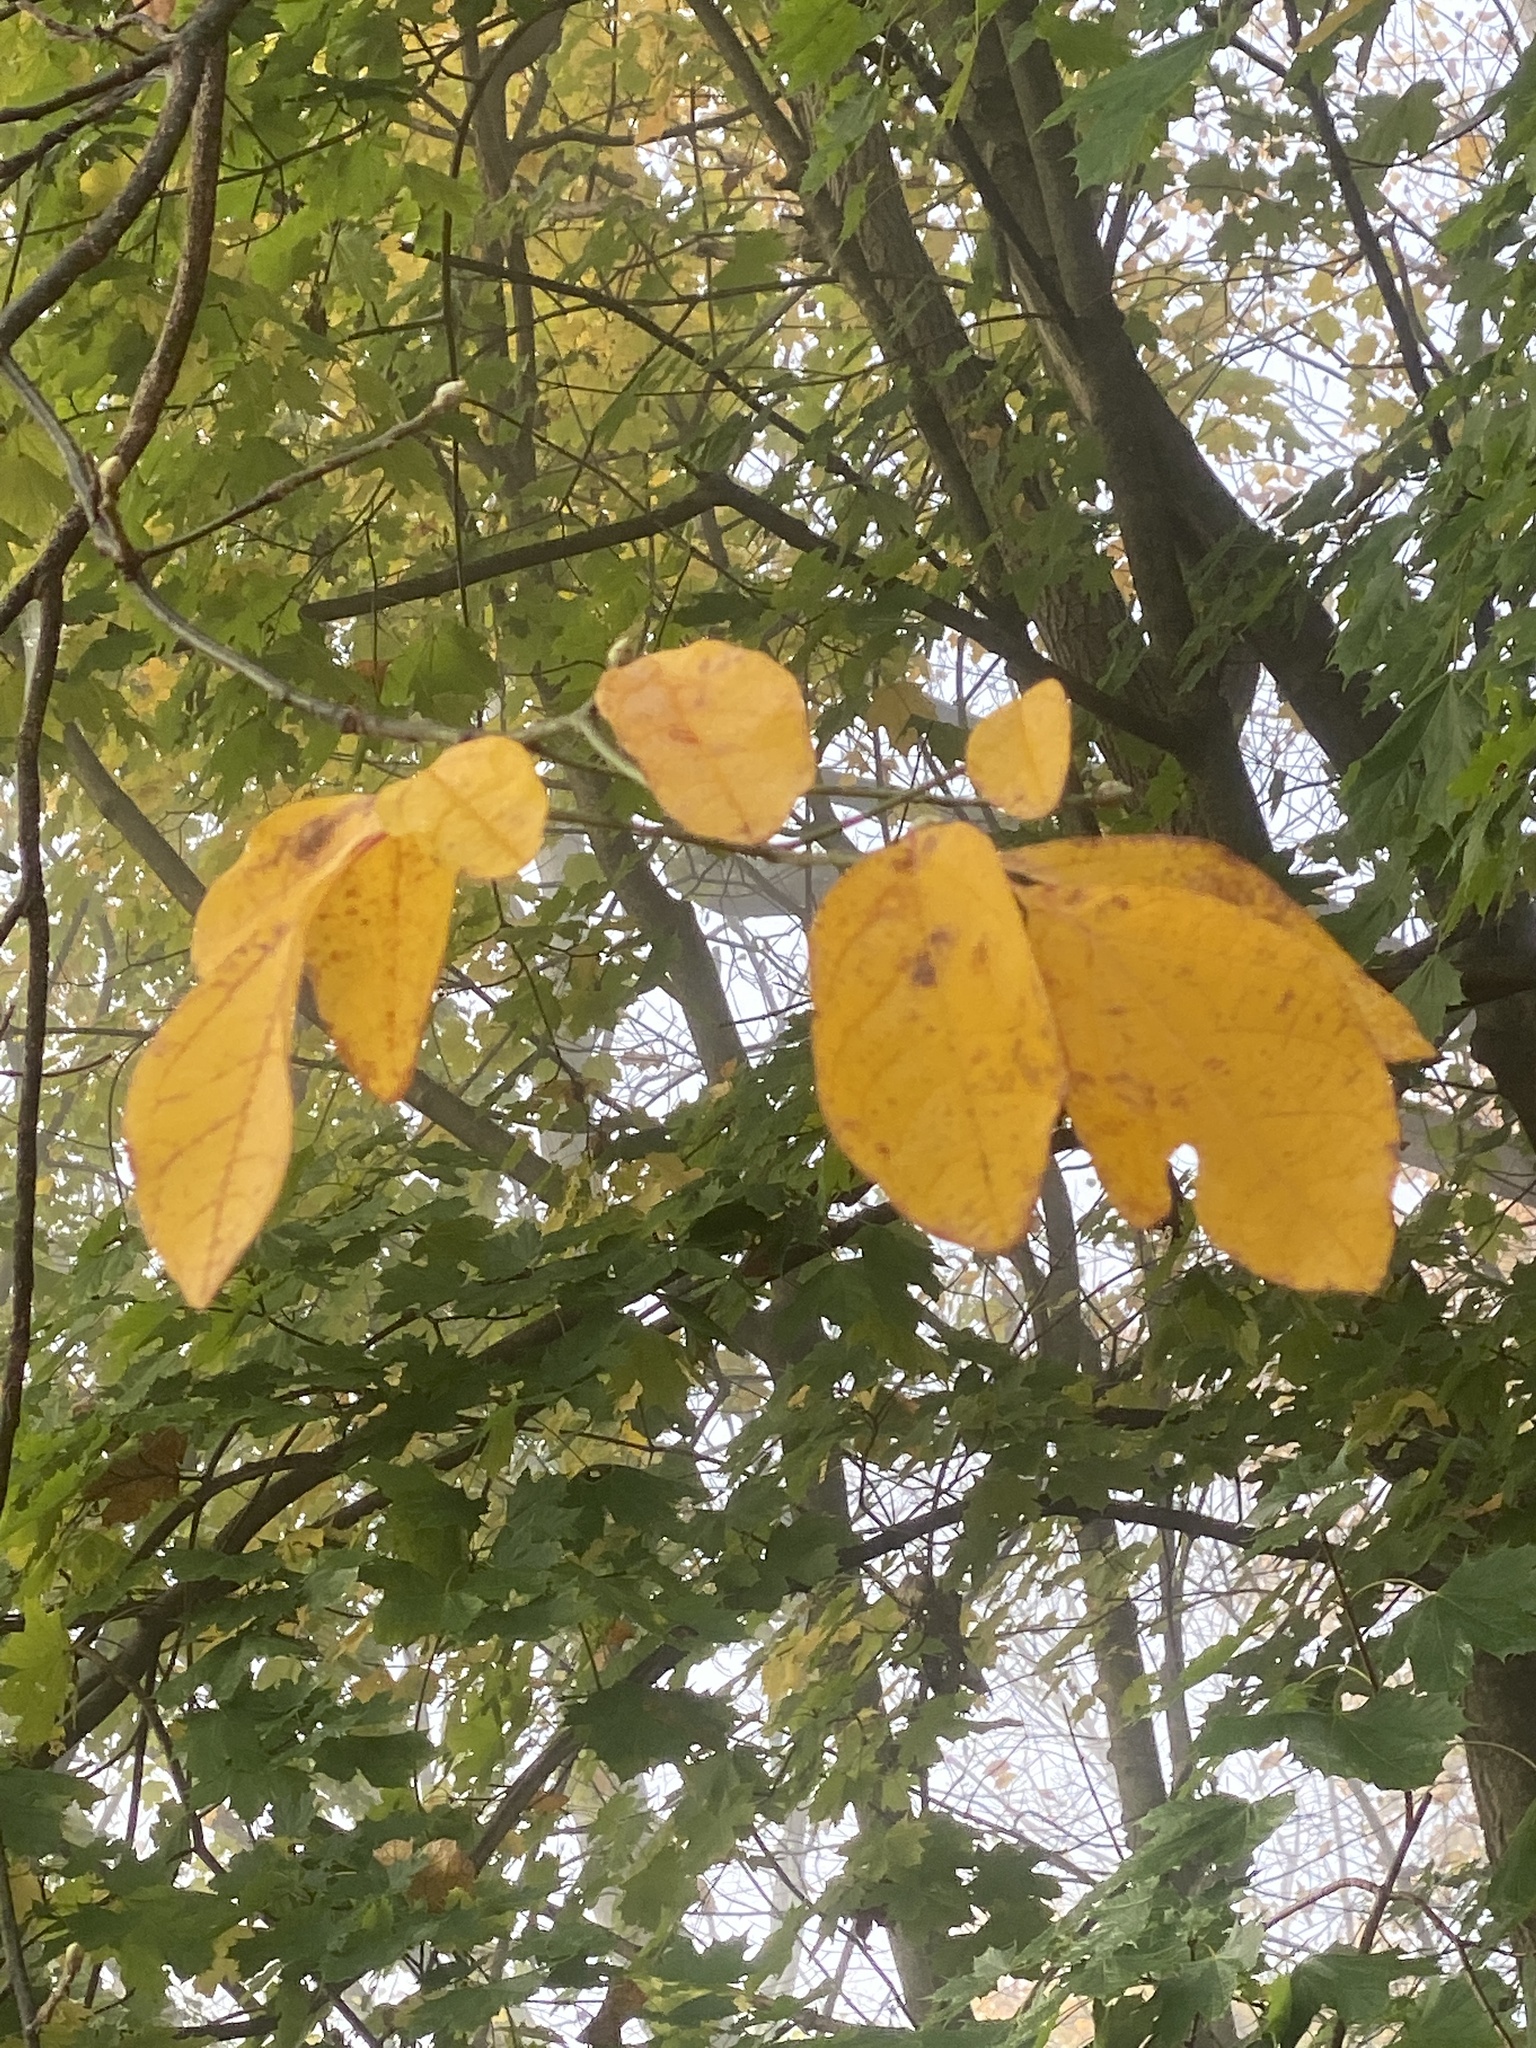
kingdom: Plantae
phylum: Tracheophyta
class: Magnoliopsida
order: Laurales
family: Lauraceae
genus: Sassafras
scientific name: Sassafras albidum
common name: Sassafras
